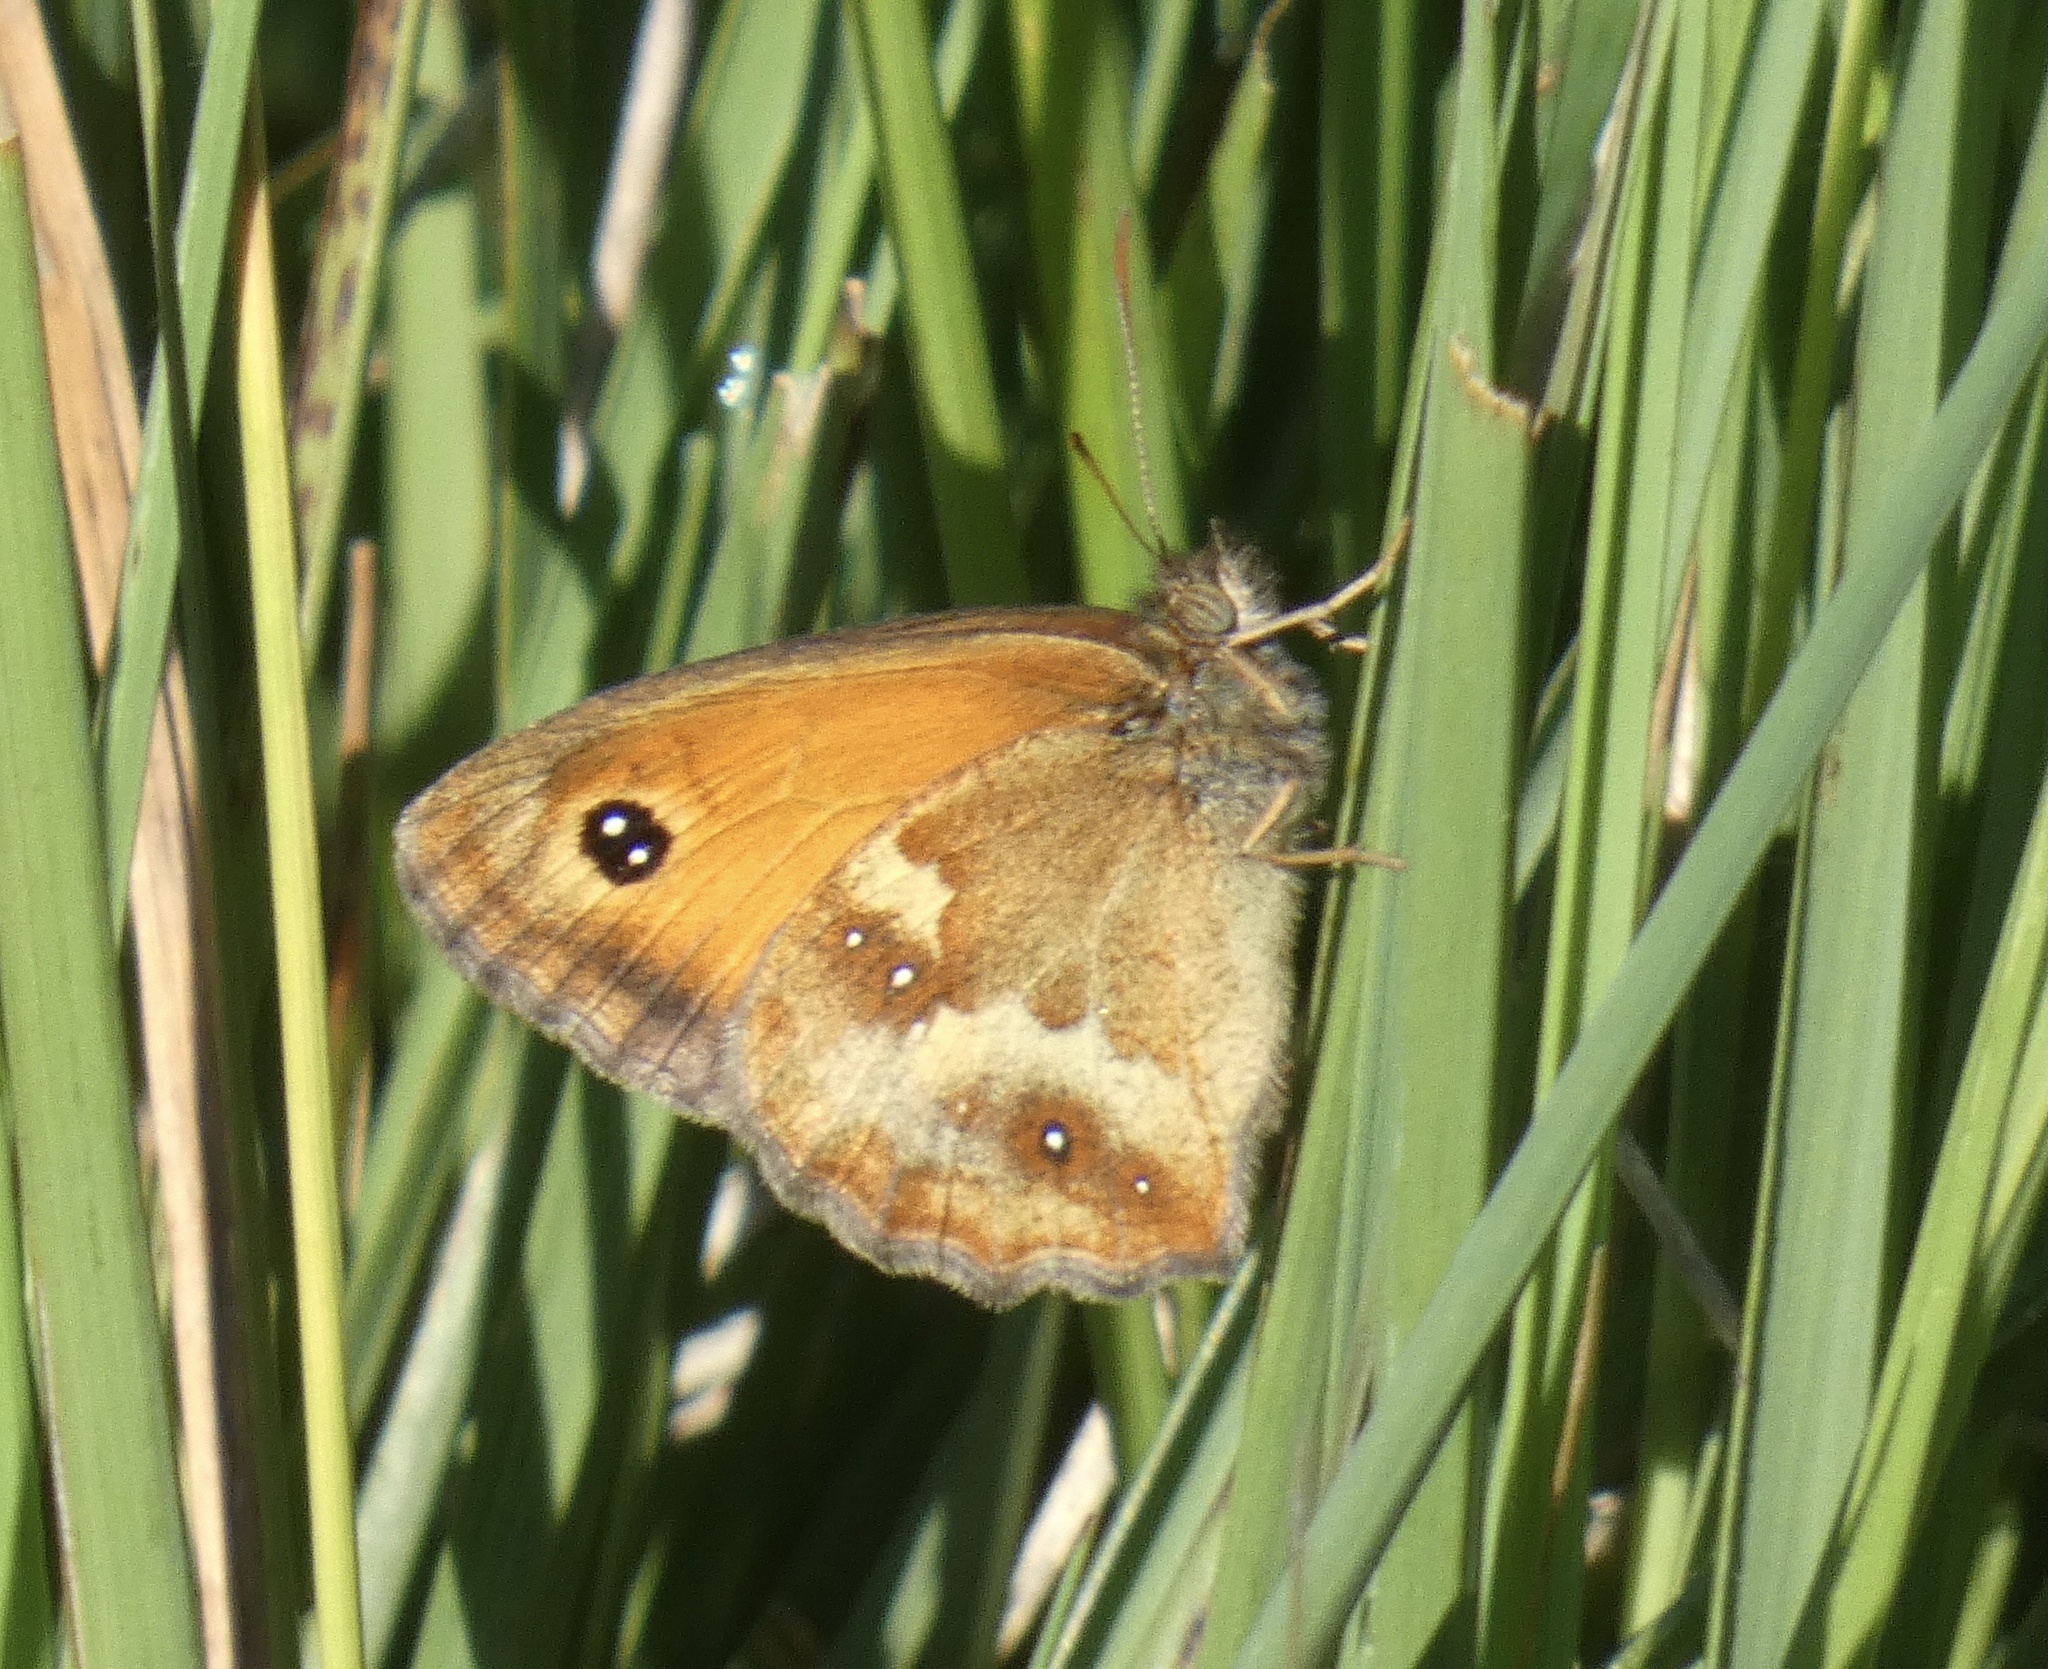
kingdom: Animalia
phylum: Arthropoda
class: Insecta
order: Lepidoptera
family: Nymphalidae
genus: Pyronia
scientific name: Pyronia tithonus
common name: Gatekeeper
